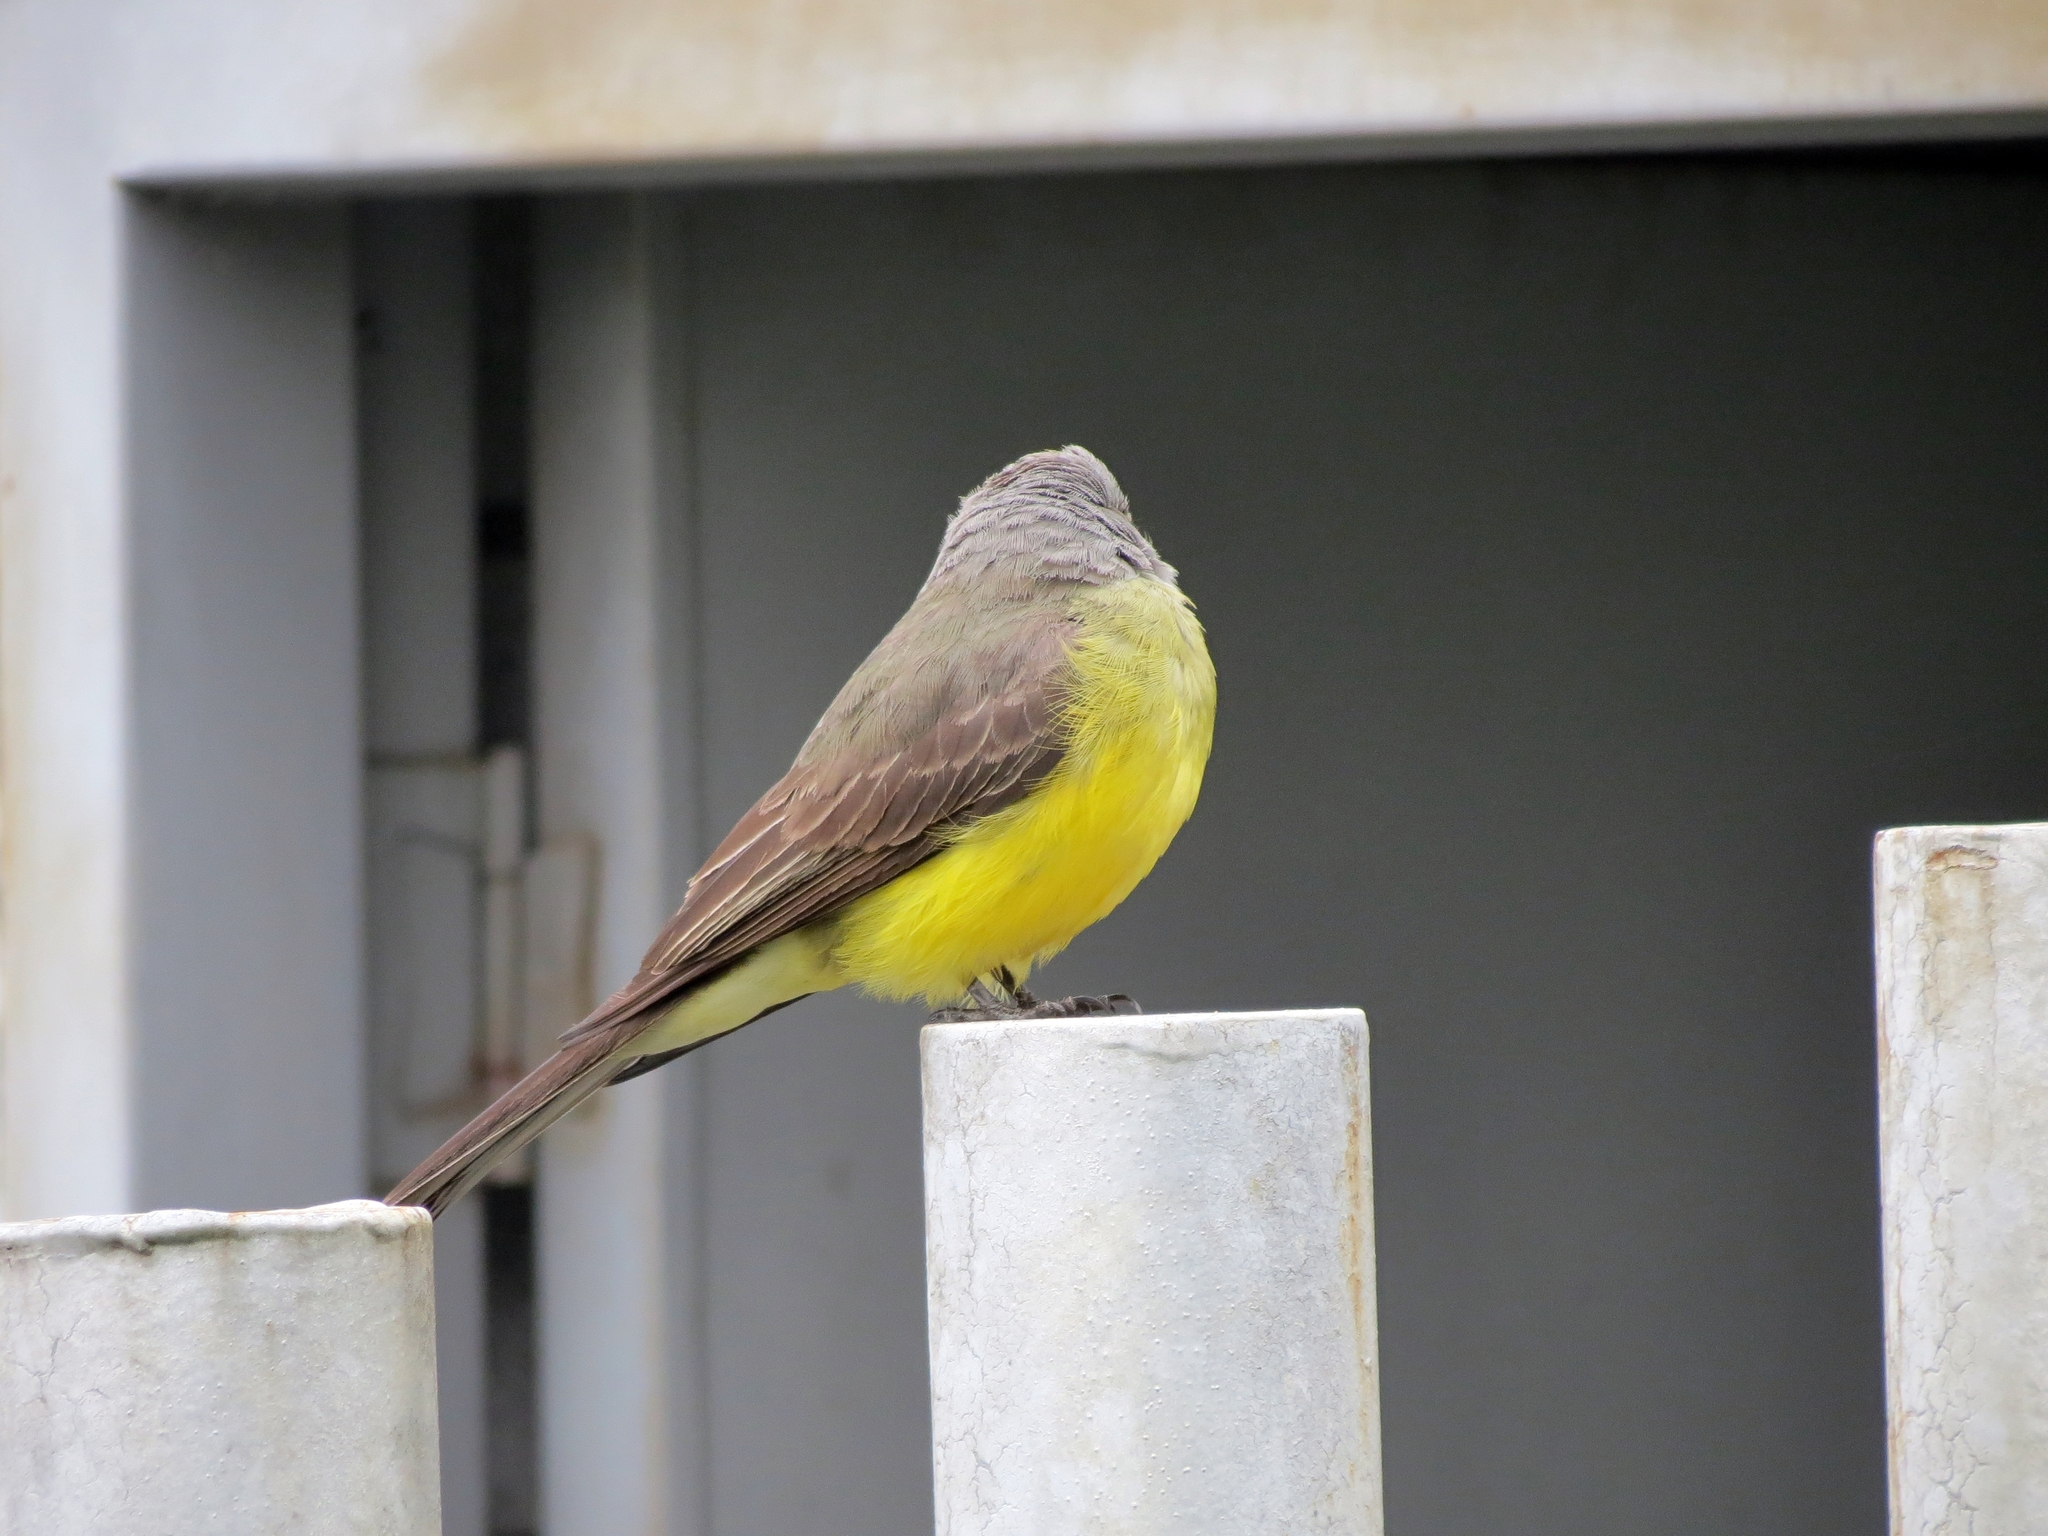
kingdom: Animalia
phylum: Chordata
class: Aves
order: Passeriformes
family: Tyrannidae
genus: Tyrannus
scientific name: Tyrannus melancholicus
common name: Tropical kingbird
